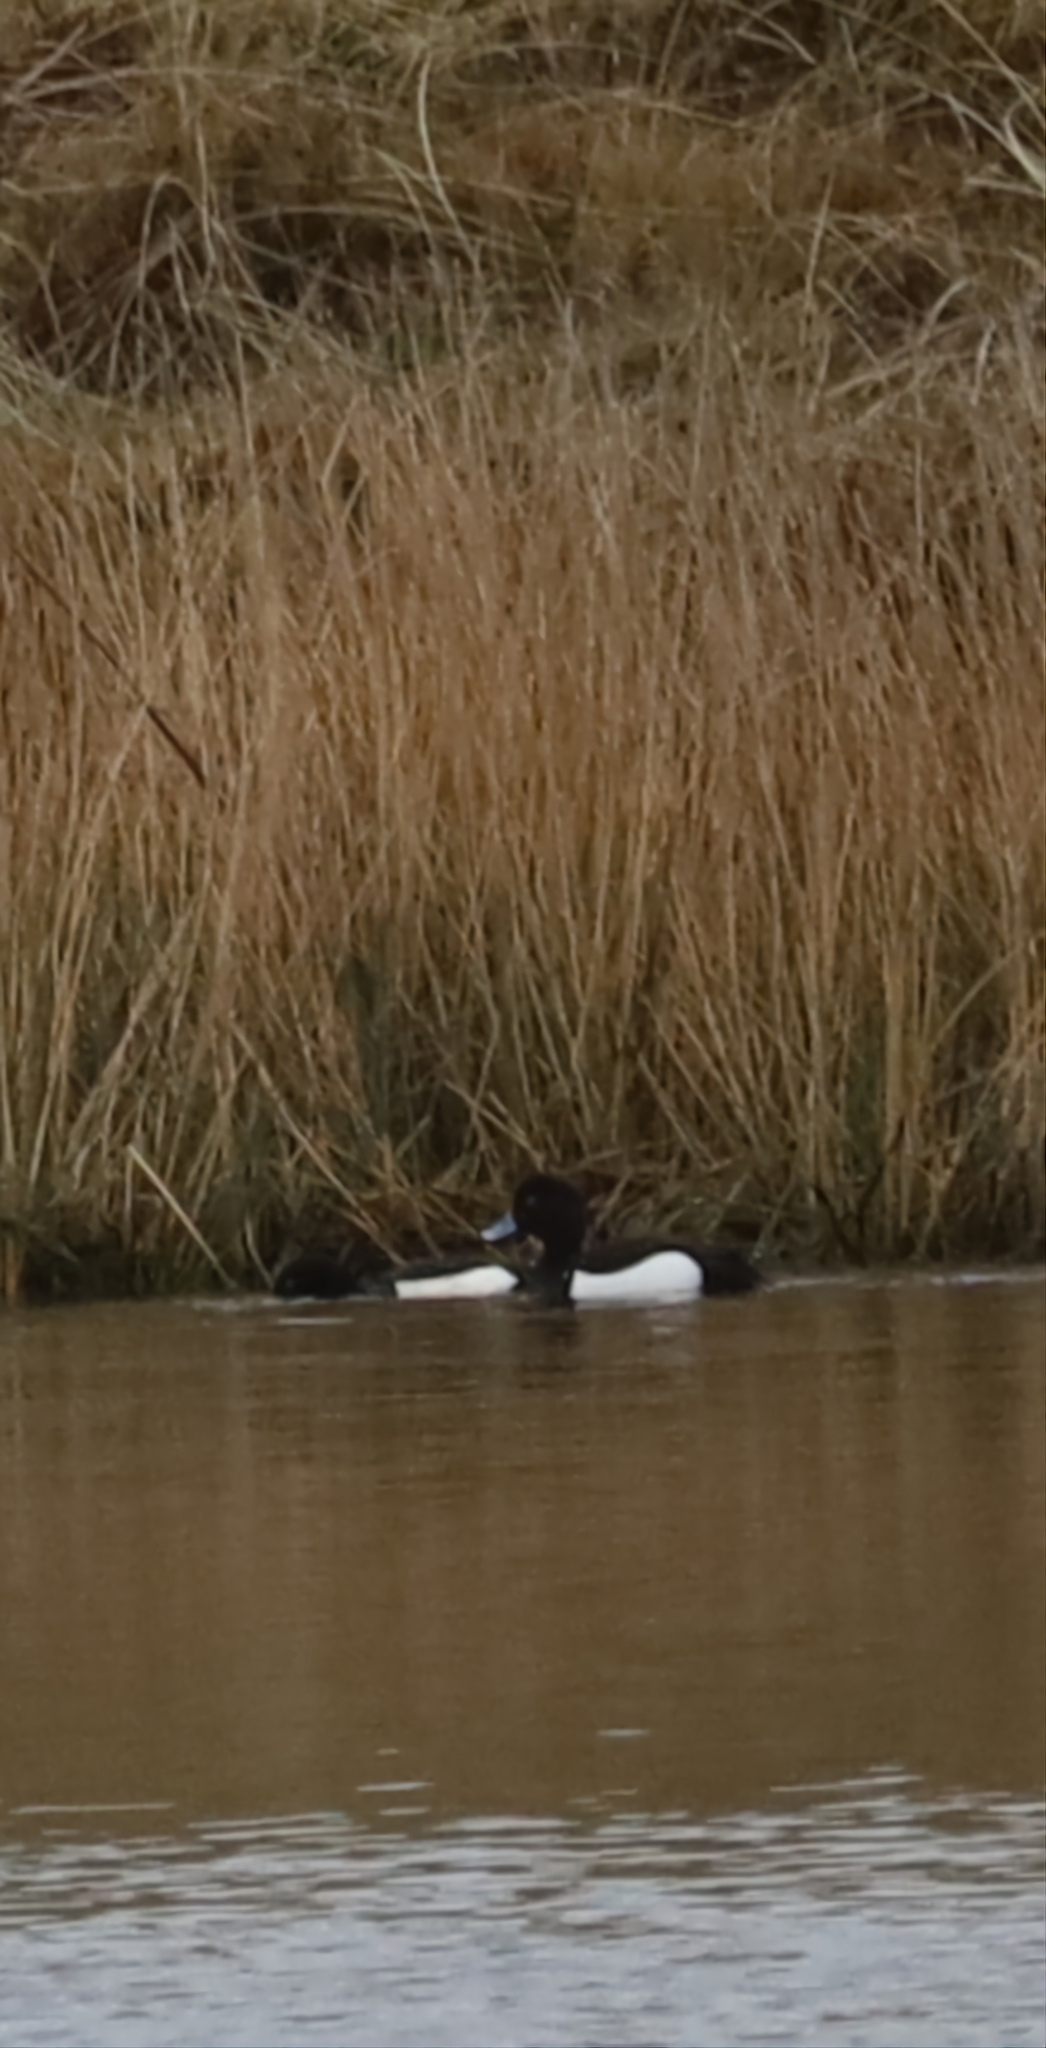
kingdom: Animalia
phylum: Chordata
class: Aves
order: Anseriformes
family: Anatidae
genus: Aythya
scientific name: Aythya fuligula
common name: Tufted duck
